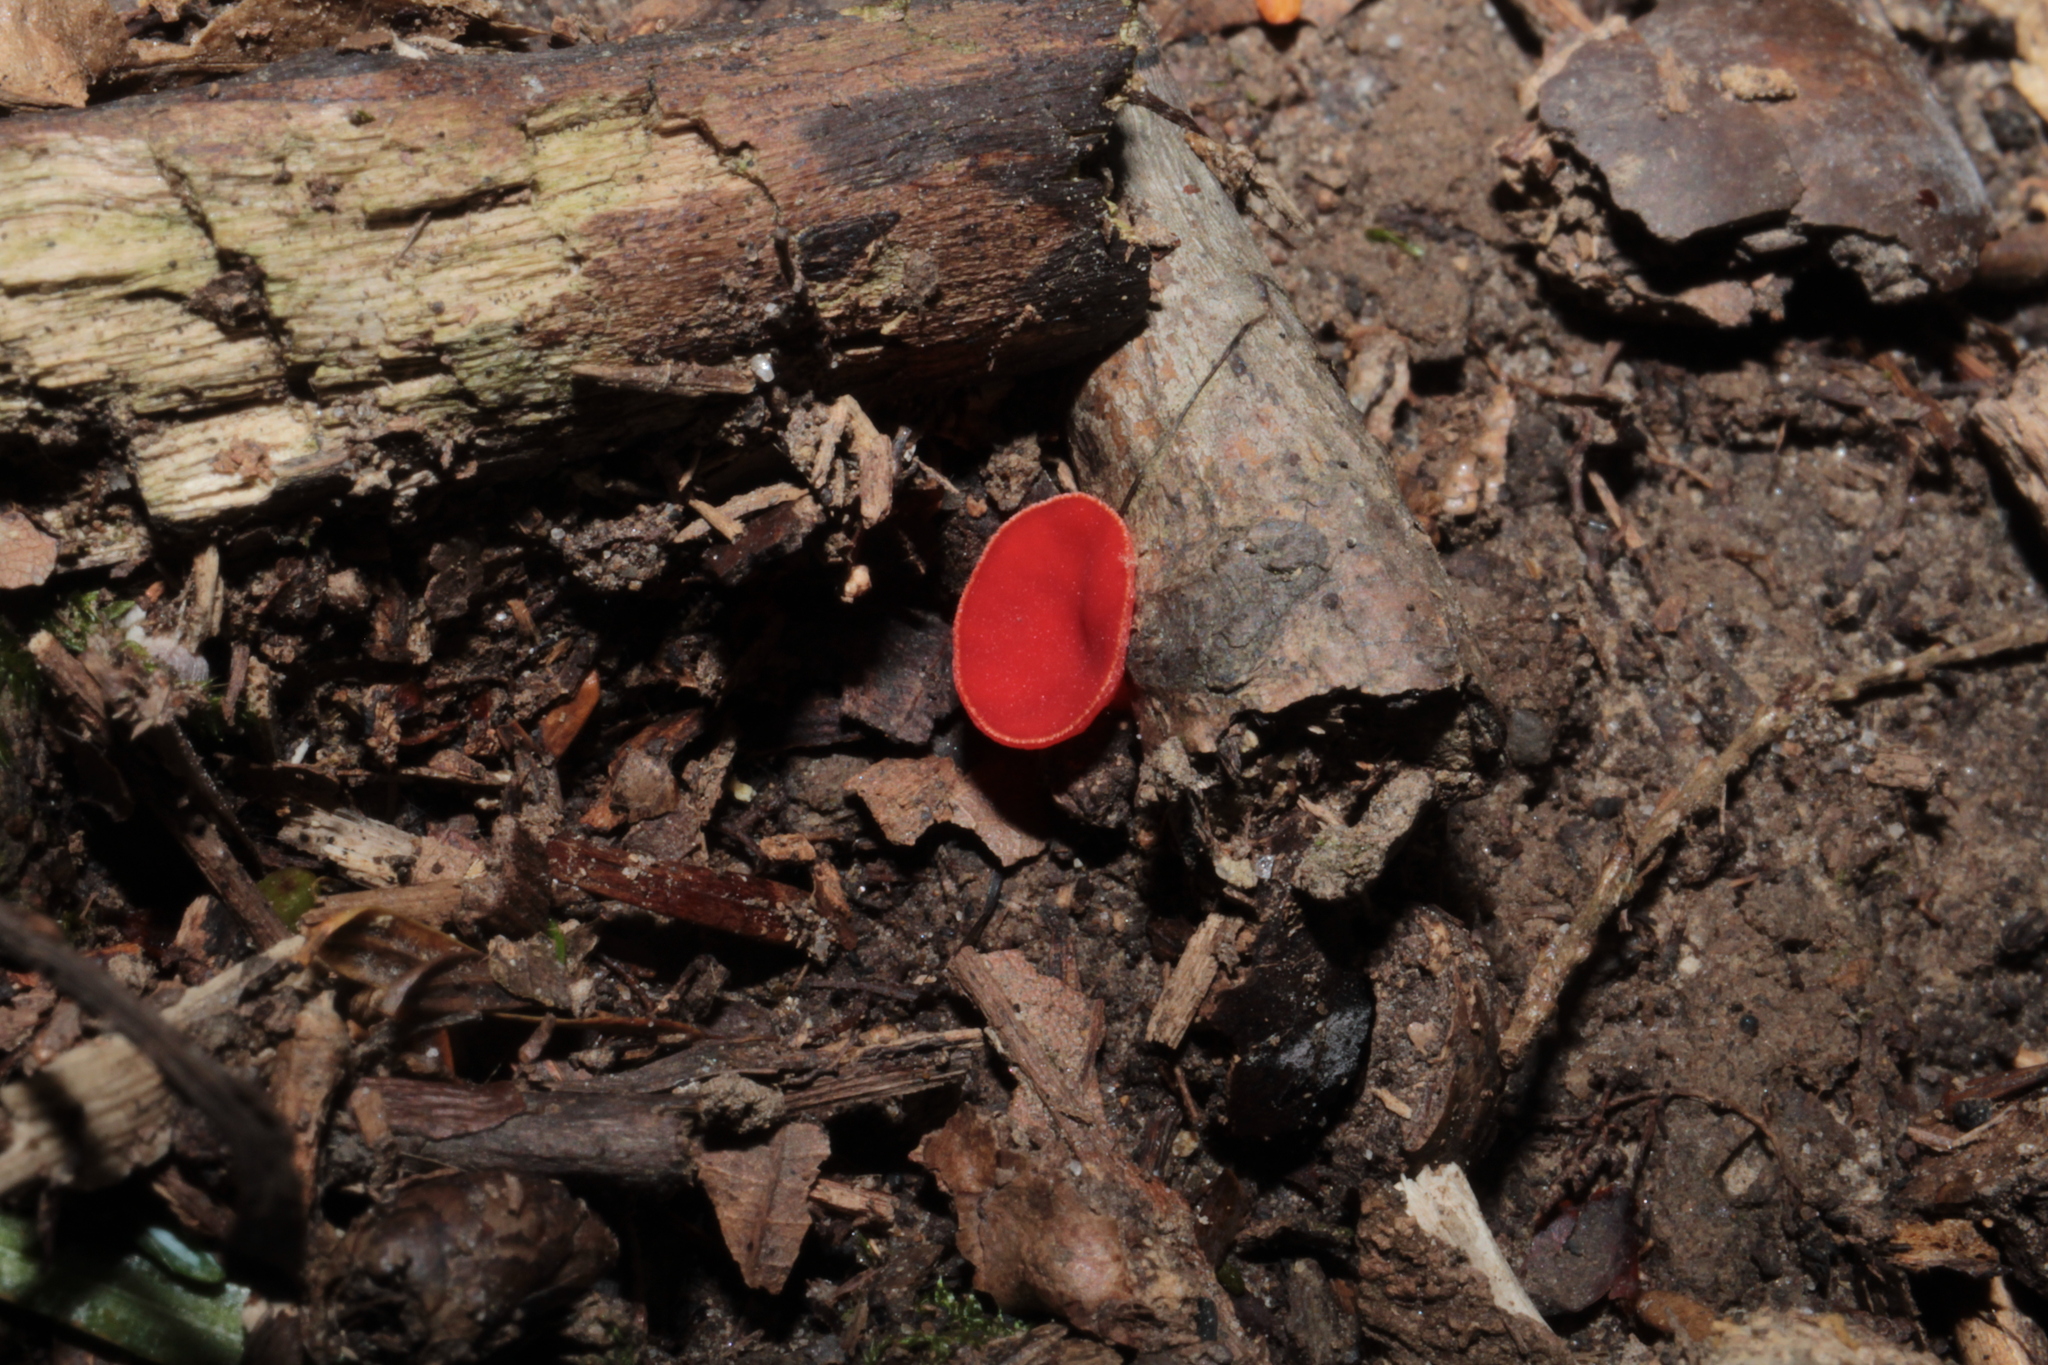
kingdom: Fungi
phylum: Ascomycota
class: Pezizomycetes
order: Pezizales
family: Sarcoscyphaceae
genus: Sarcoscypha
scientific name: Sarcoscypha occidentalis
